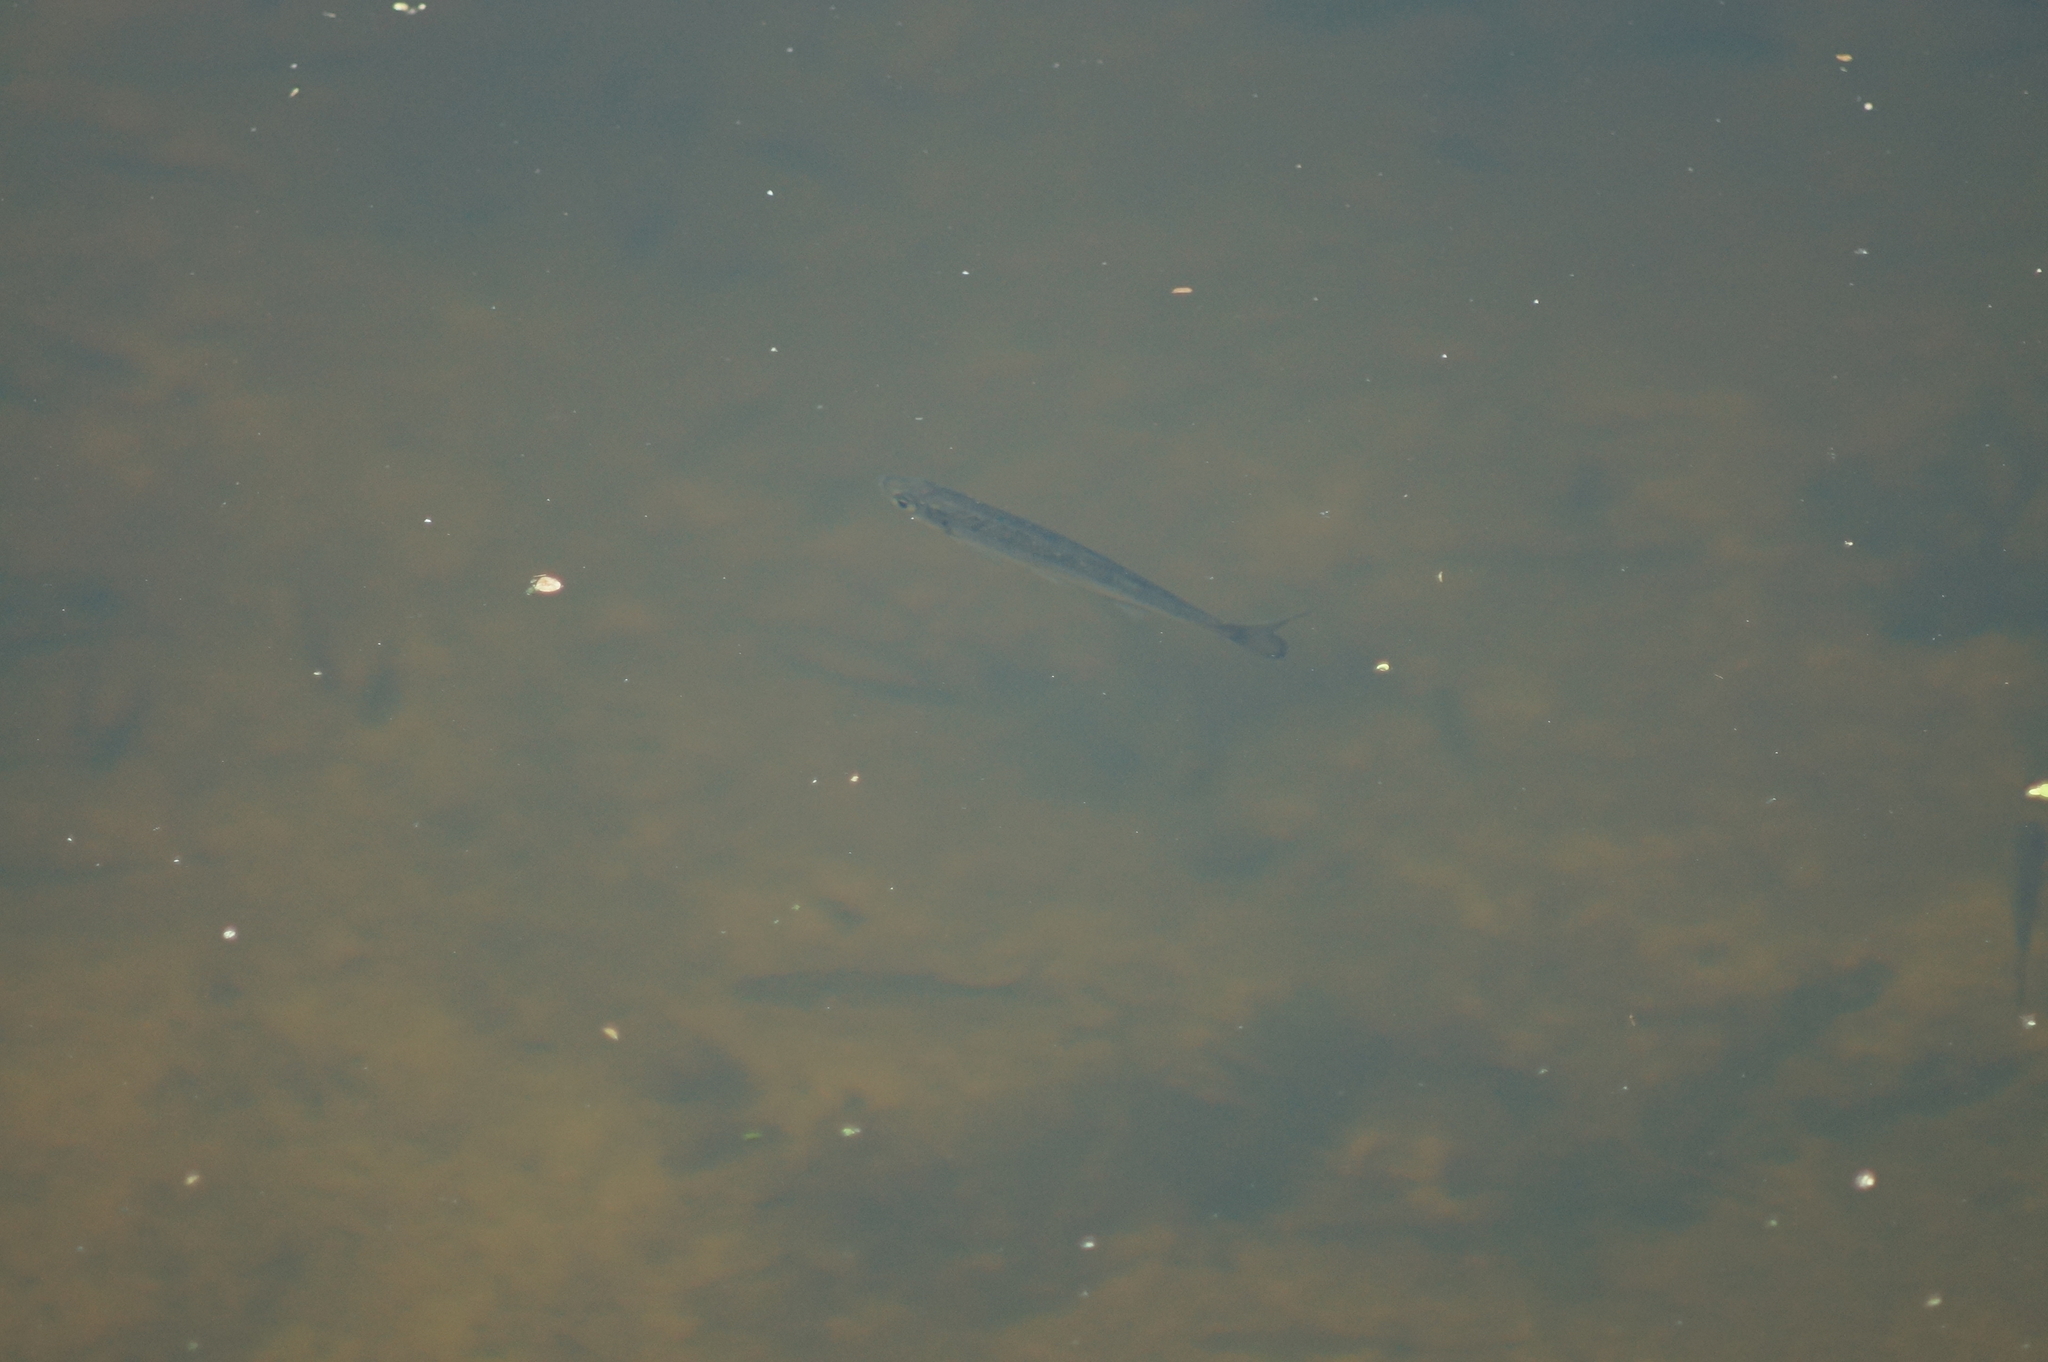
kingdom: Animalia
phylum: Chordata
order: Cypriniformes
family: Cyprinidae
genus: Alburnus
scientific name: Alburnus alburnus
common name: Bleak
